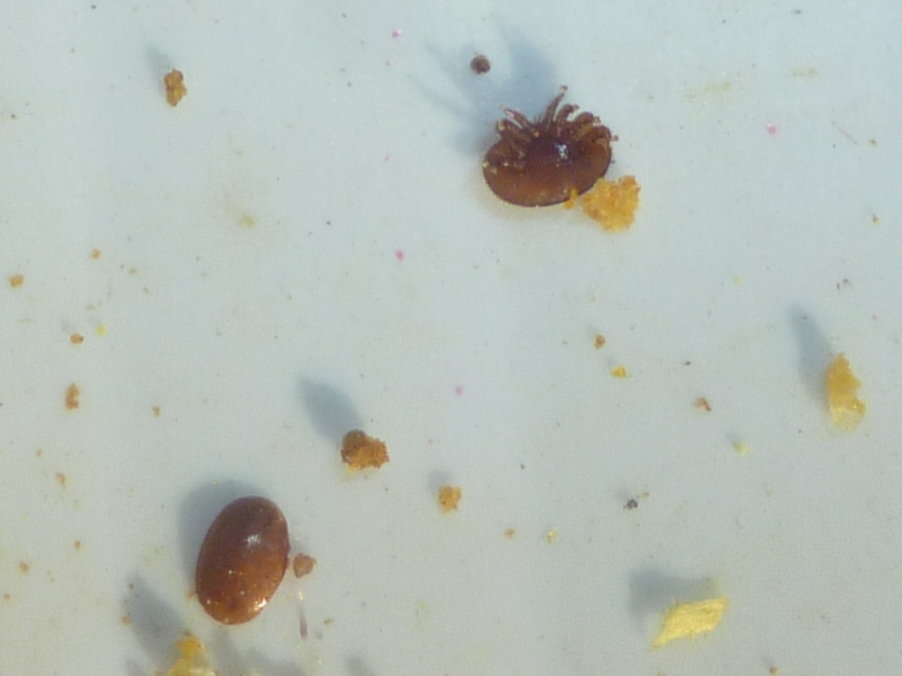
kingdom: Animalia
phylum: Arthropoda
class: Arachnida
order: Mesostigmata
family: Varroidae
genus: Varroa
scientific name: Varroa destructor
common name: Honey bee mite
